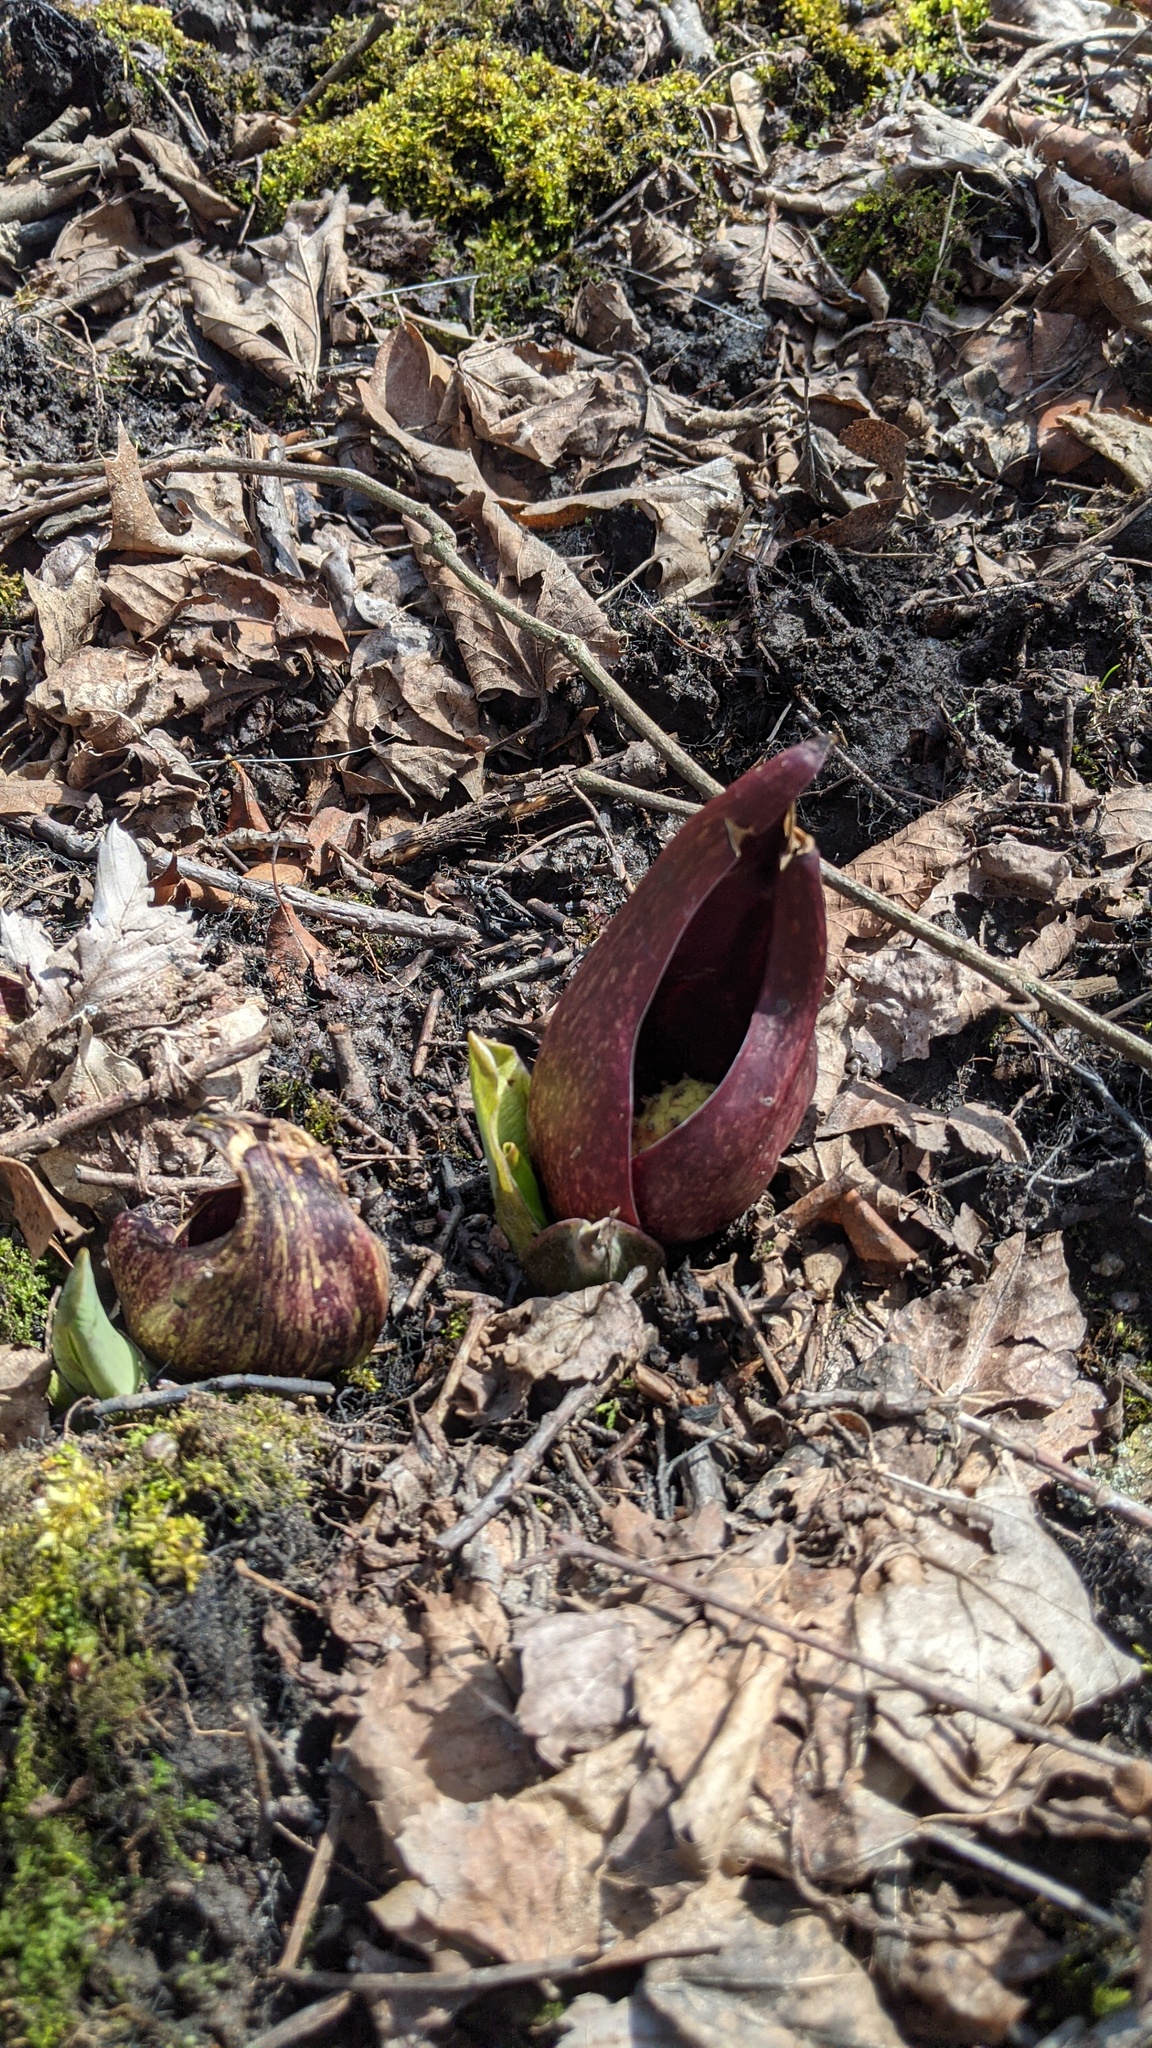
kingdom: Plantae
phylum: Tracheophyta
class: Liliopsida
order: Alismatales
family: Araceae
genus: Symplocarpus
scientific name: Symplocarpus foetidus
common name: Eastern skunk cabbage
